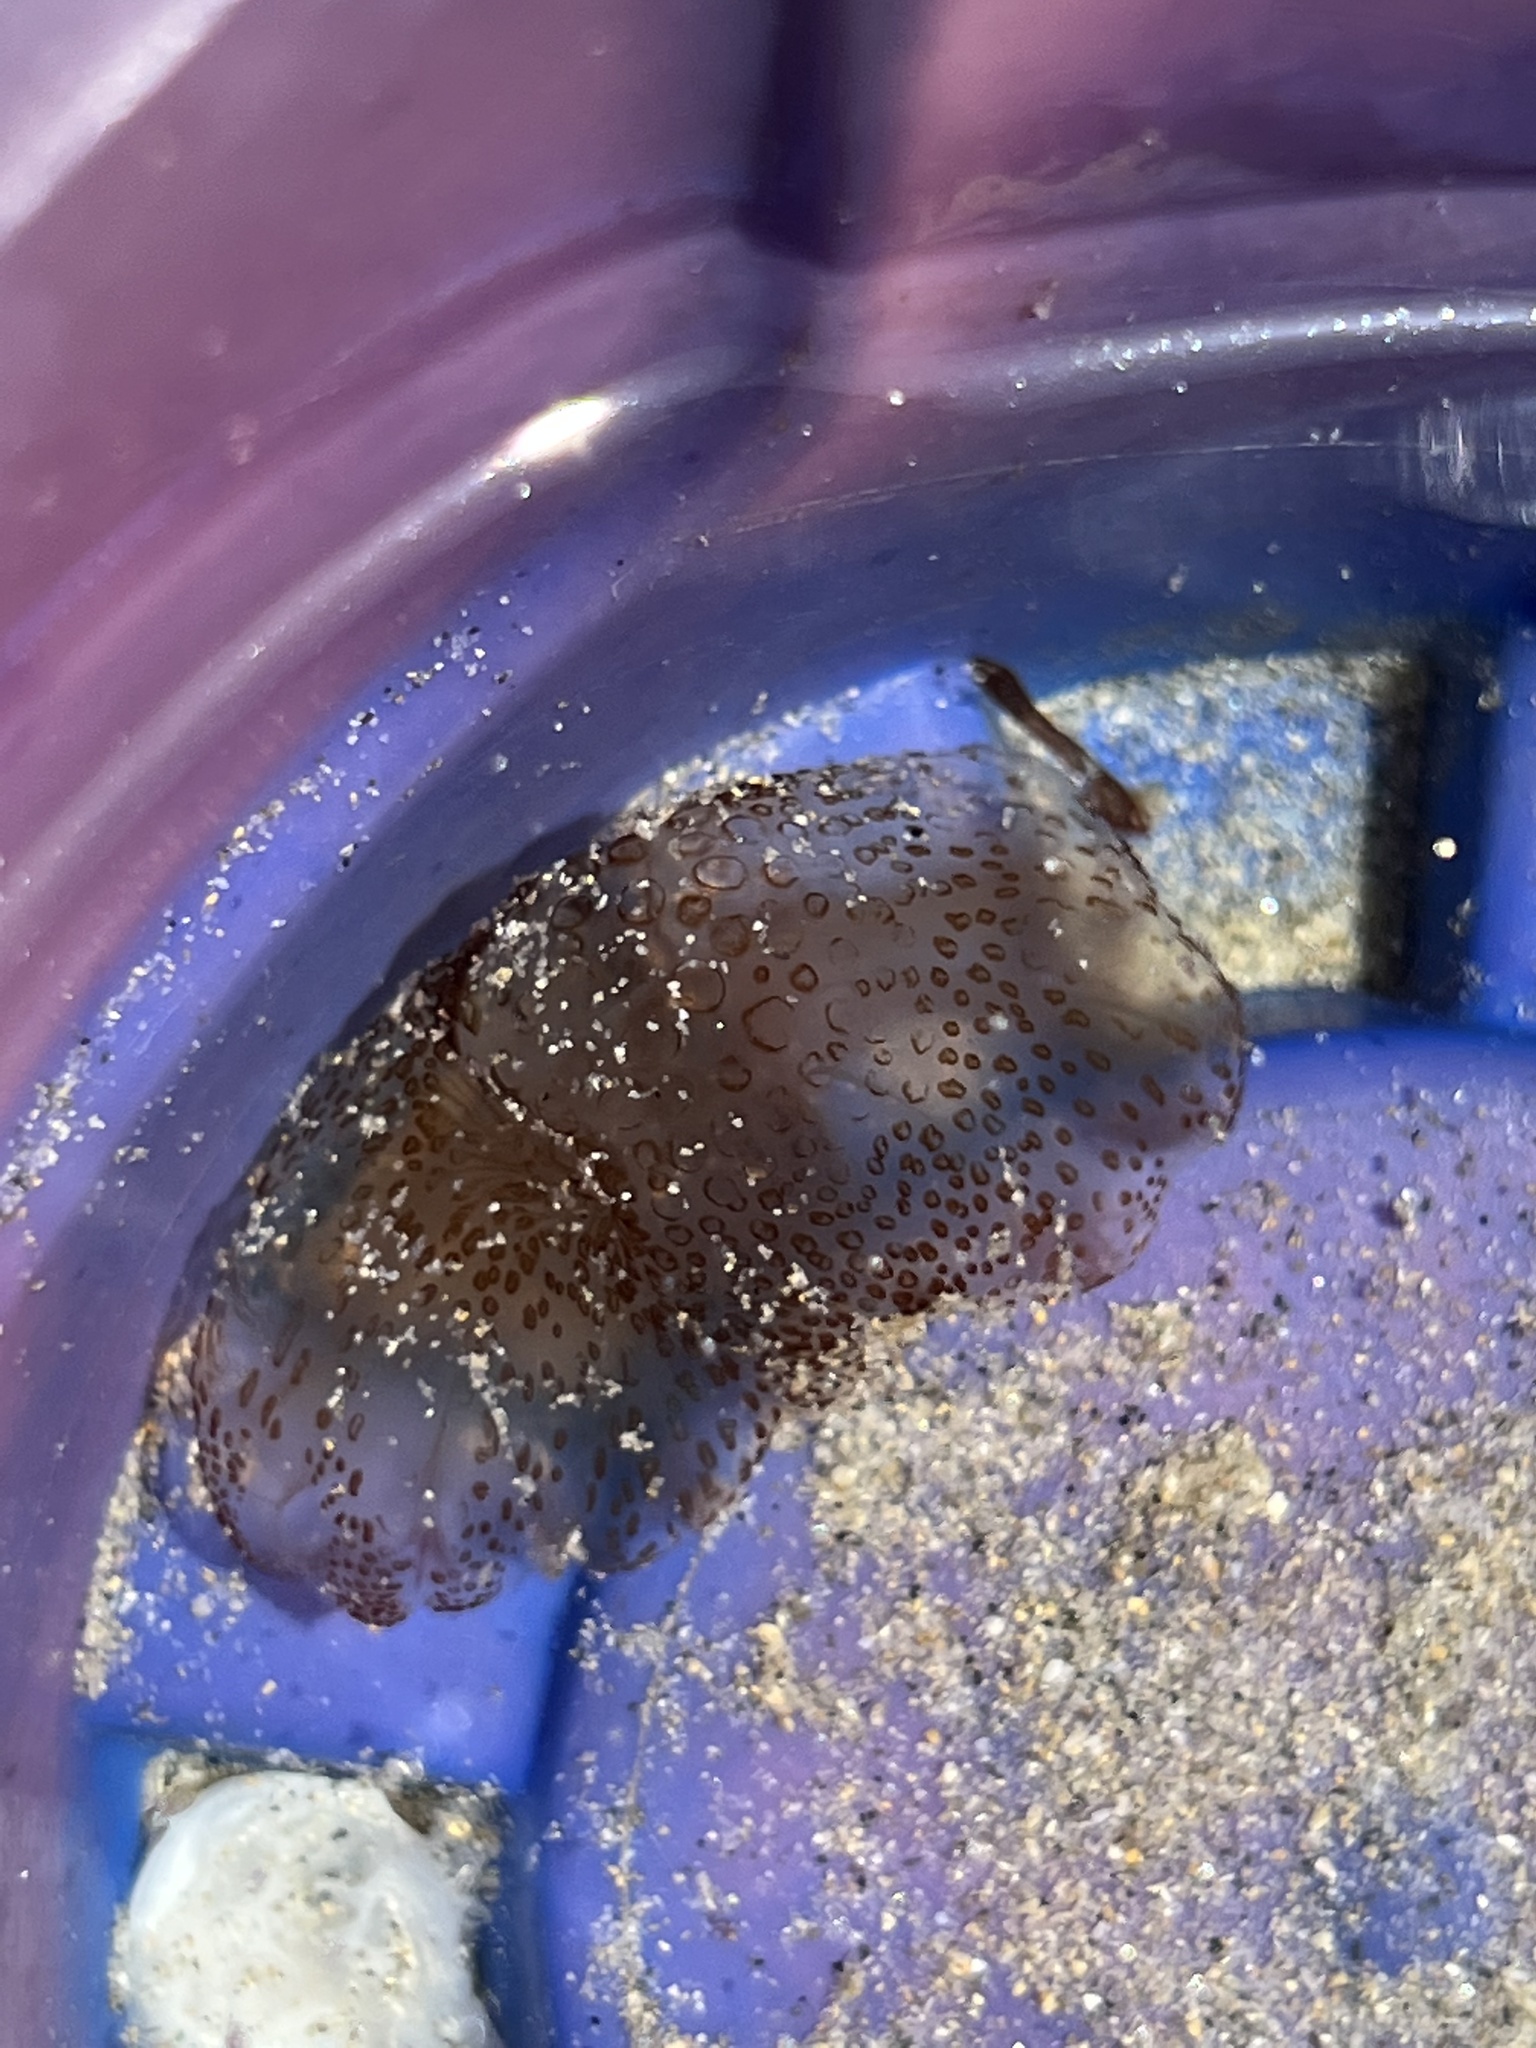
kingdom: Animalia
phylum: Cnidaria
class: Scyphozoa
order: Semaeostomeae
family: Pelagiidae
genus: Pelagia
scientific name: Pelagia noctiluca
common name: Mauve stinger
